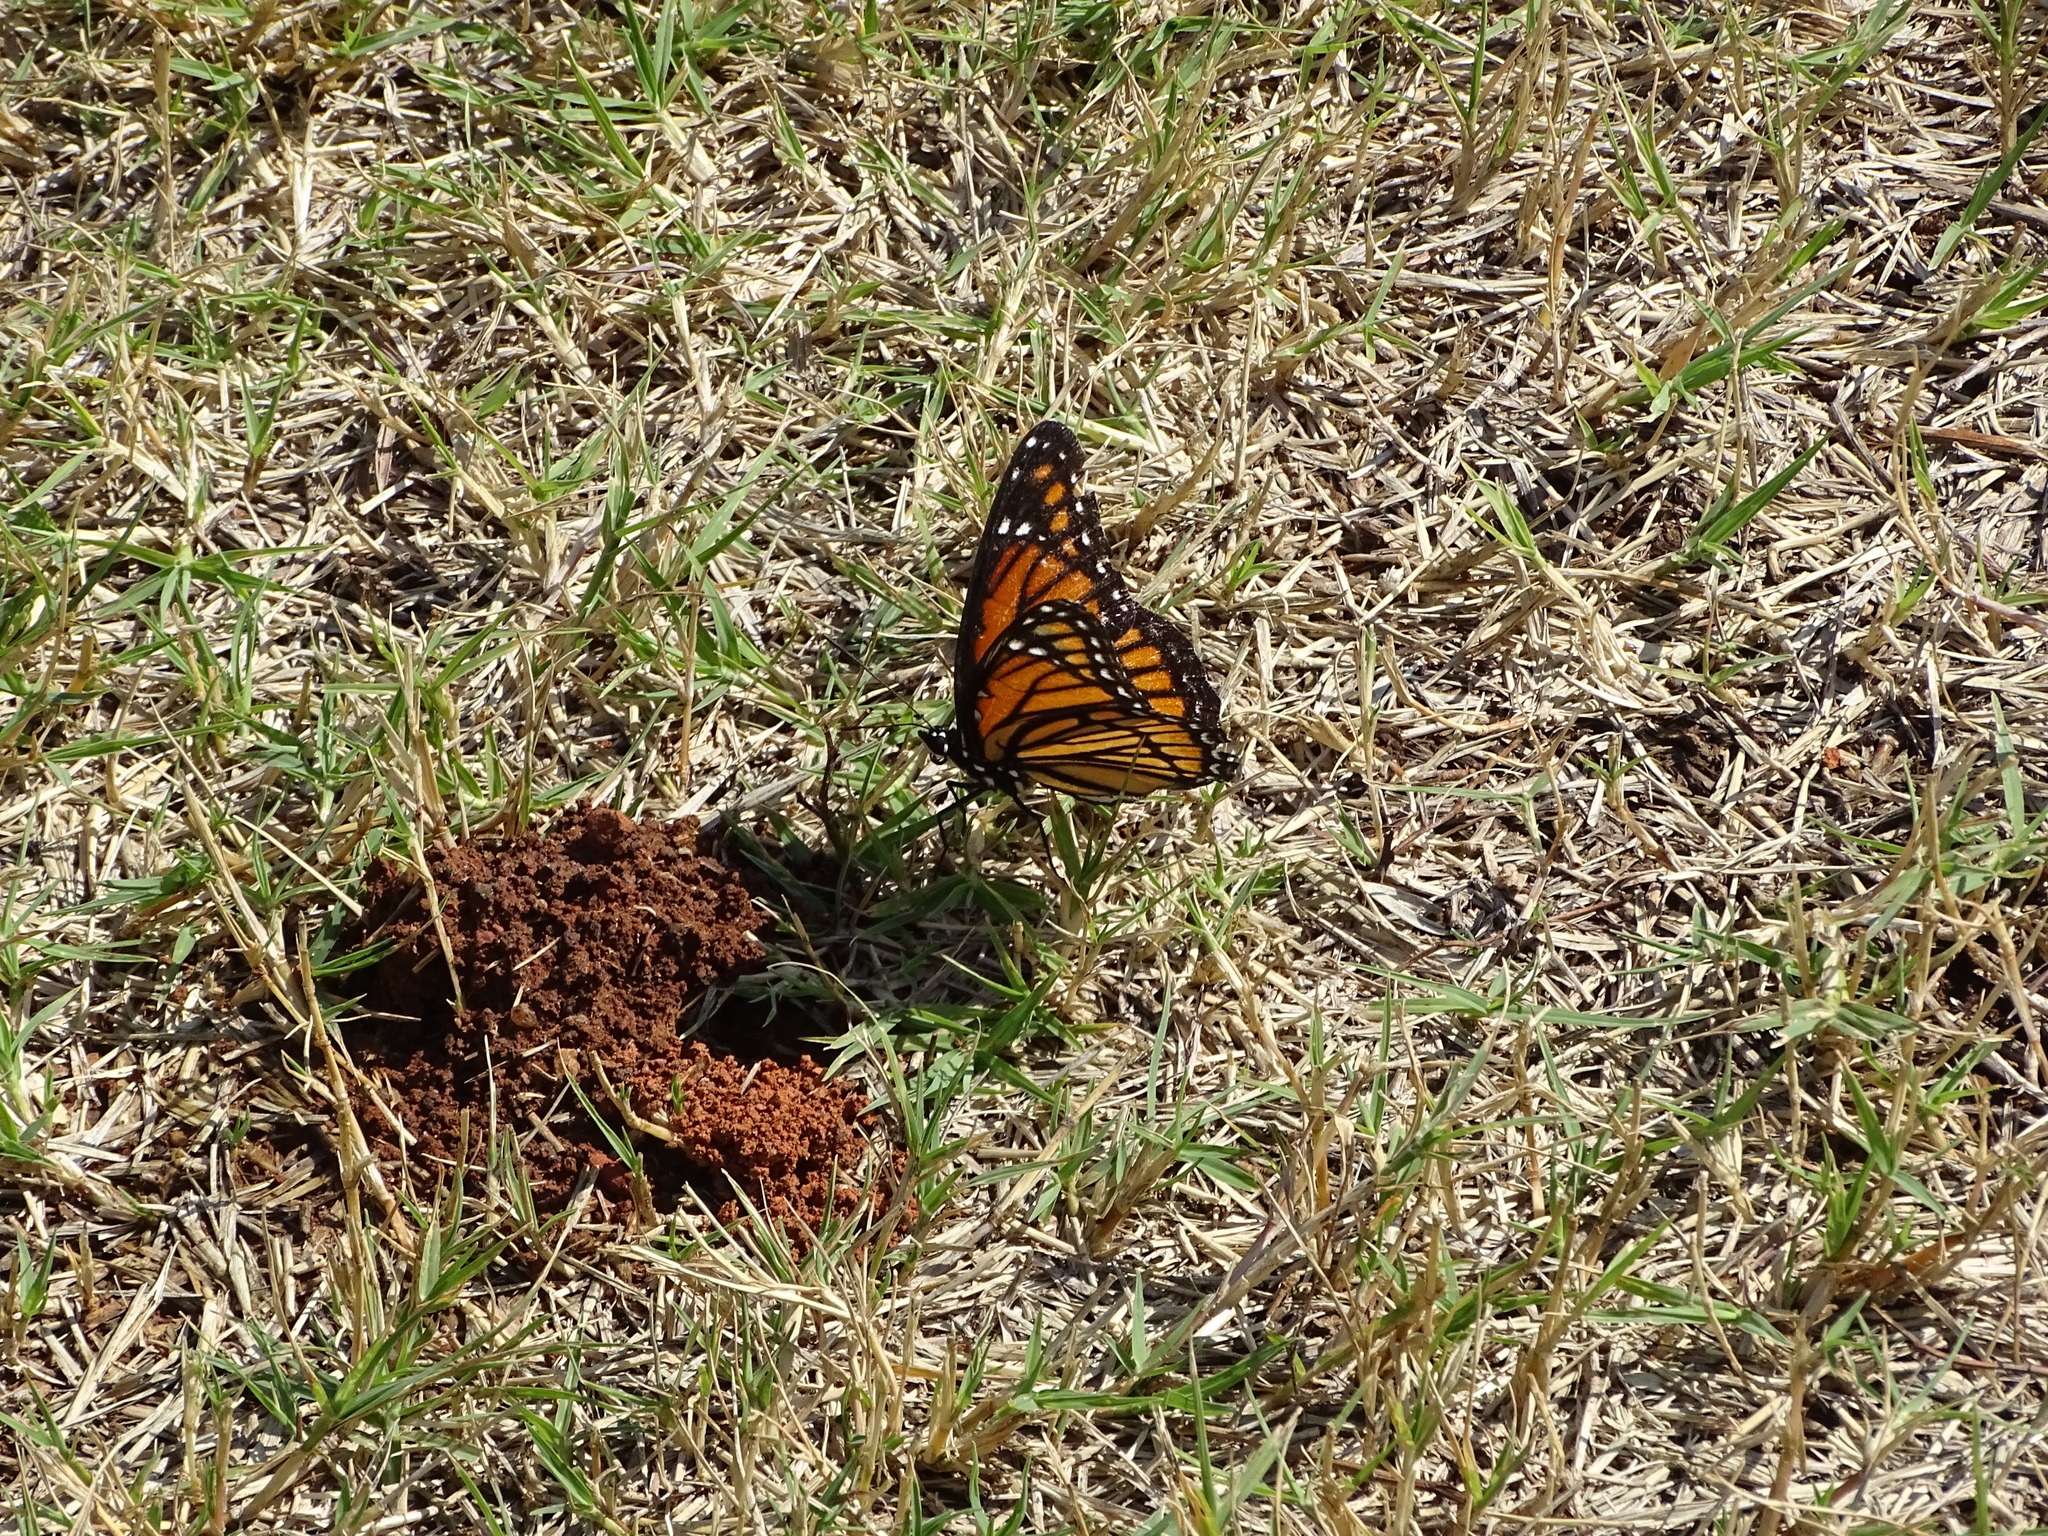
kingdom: Animalia
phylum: Arthropoda
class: Insecta
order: Lepidoptera
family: Nymphalidae
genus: Limenitis
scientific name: Limenitis archippus
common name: Viceroy
